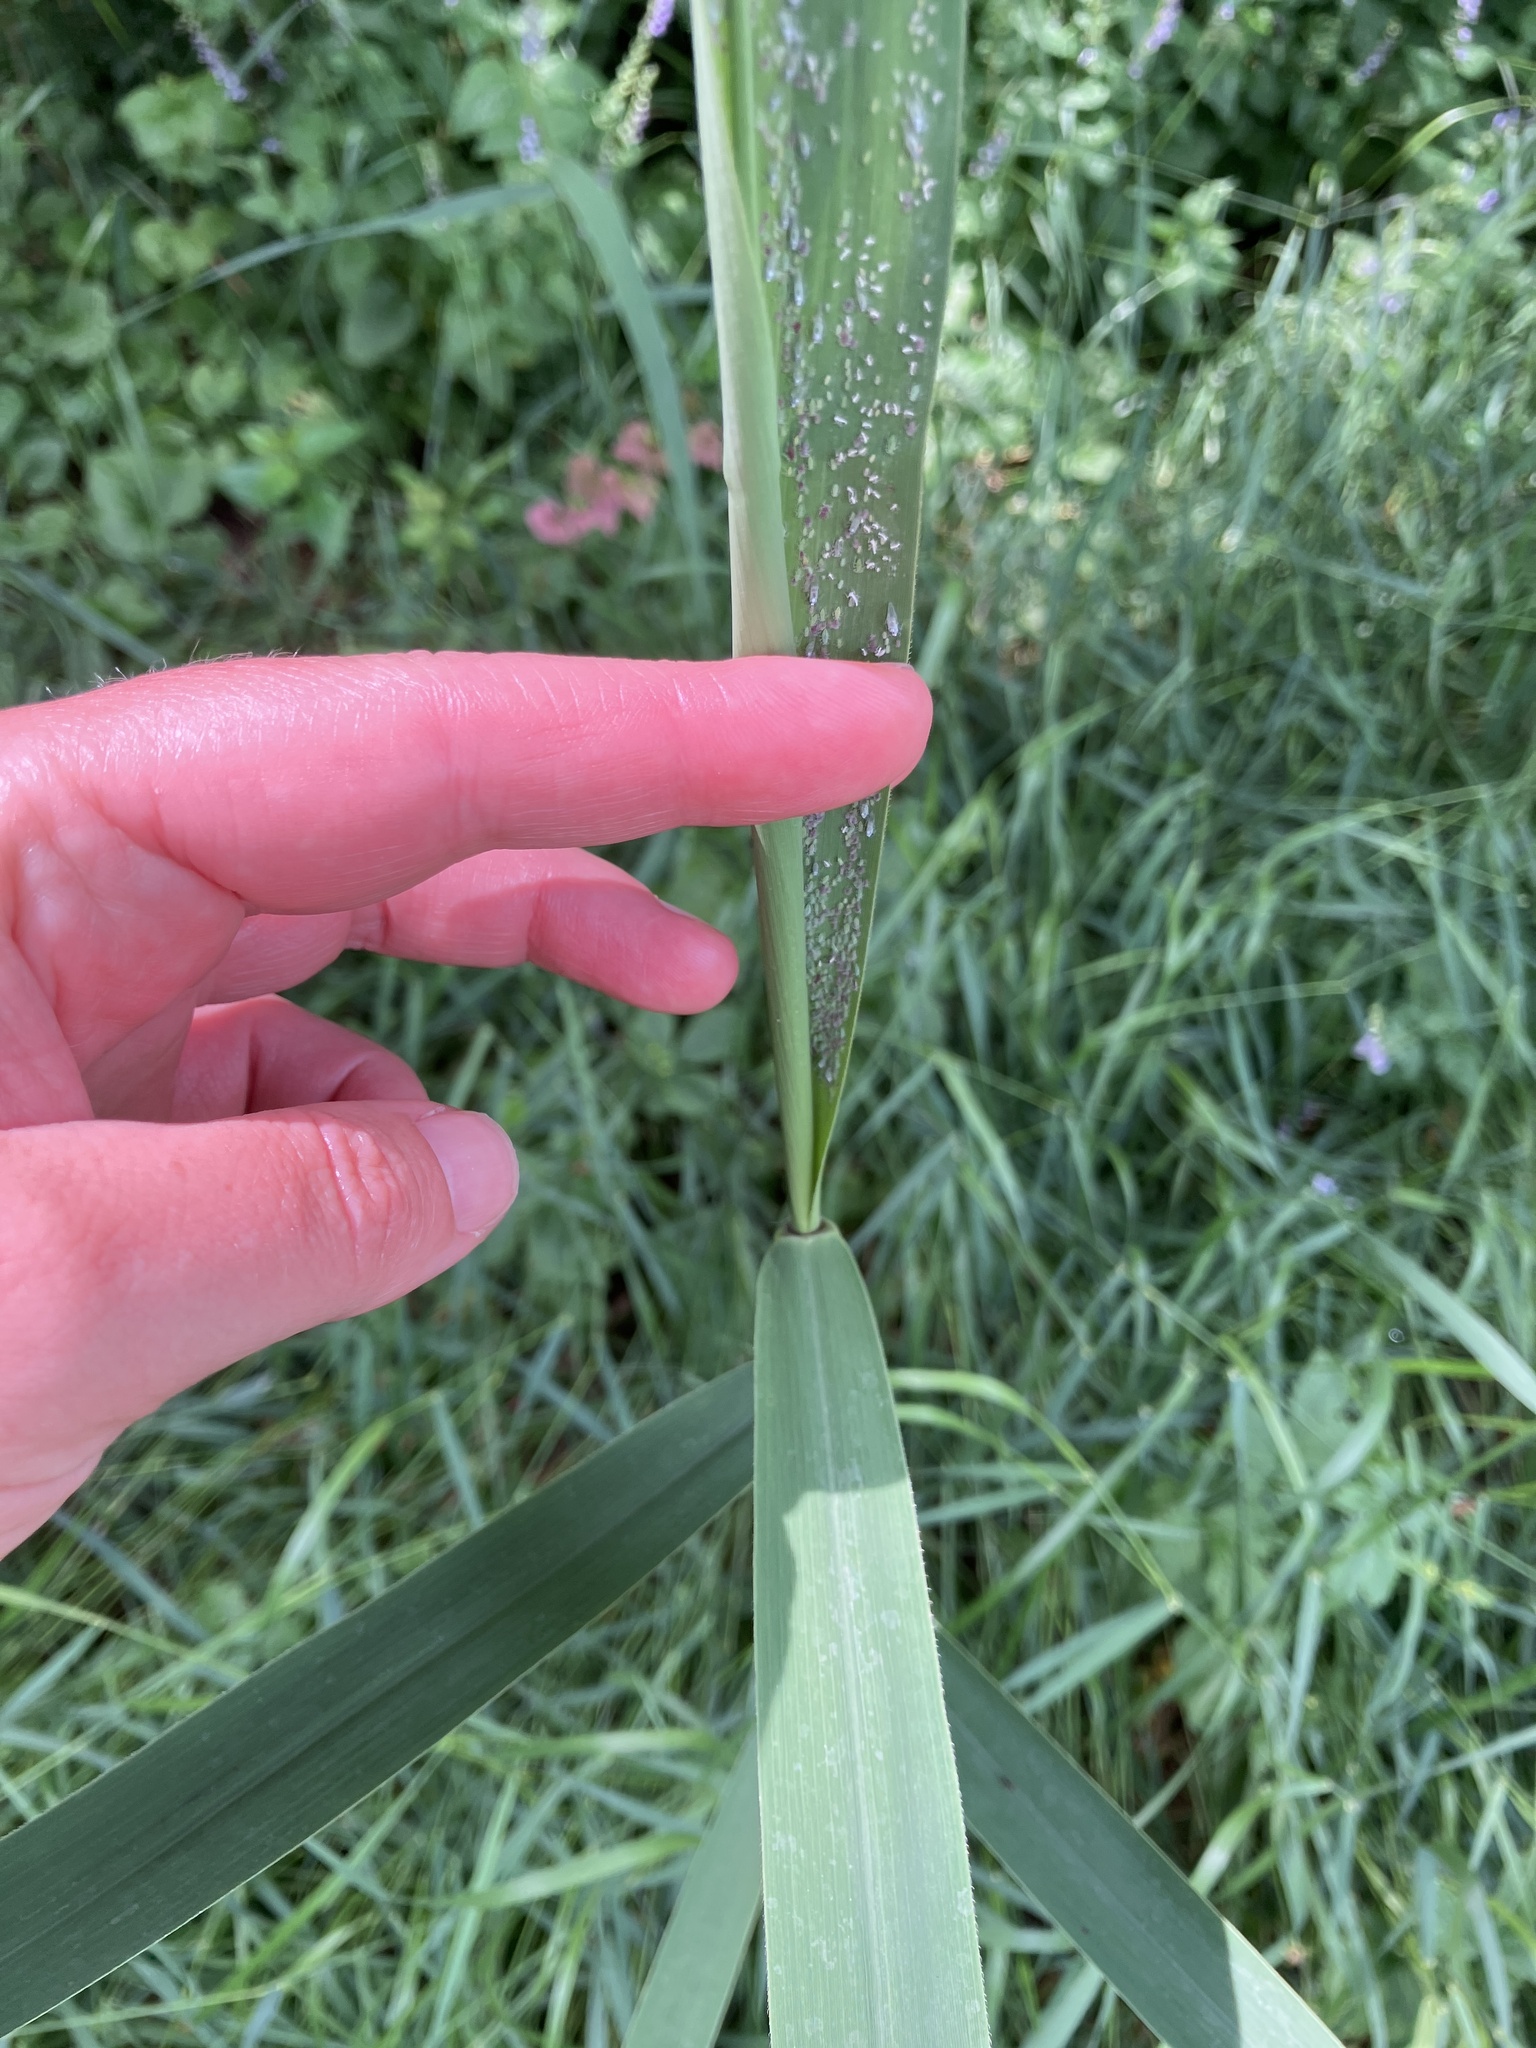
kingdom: Plantae
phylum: Tracheophyta
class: Liliopsida
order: Poales
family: Poaceae
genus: Phragmites
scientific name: Phragmites australis
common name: Common reed
